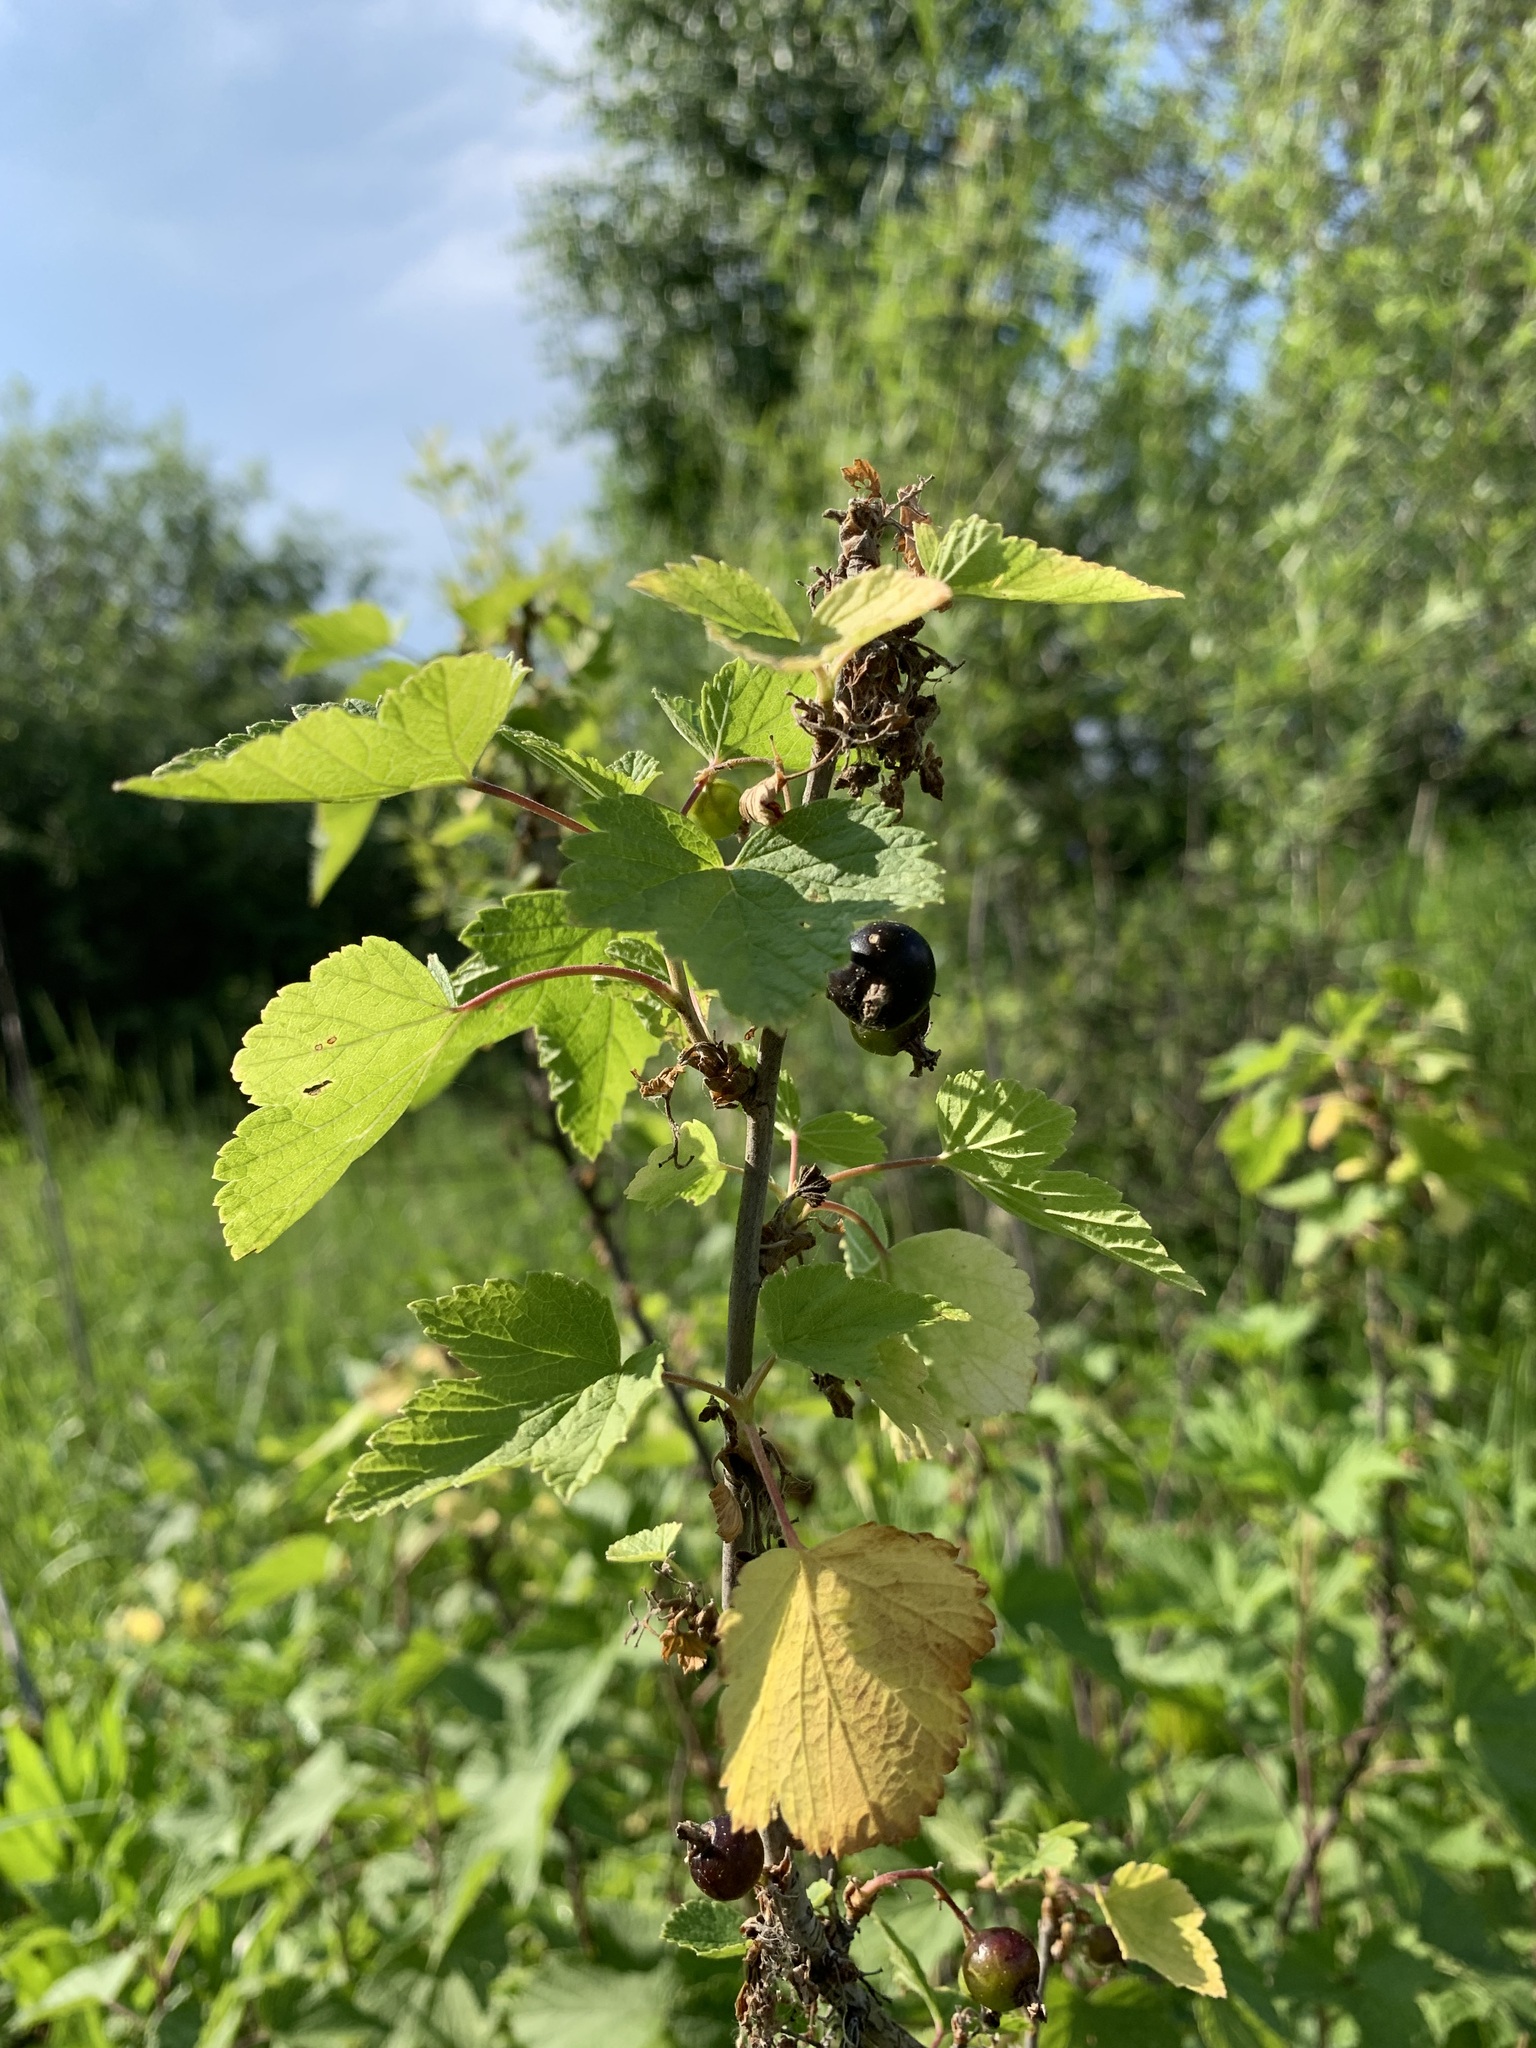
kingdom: Plantae
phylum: Tracheophyta
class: Magnoliopsida
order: Saxifragales
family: Grossulariaceae
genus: Ribes
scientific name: Ribes nigrum
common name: Black currant
